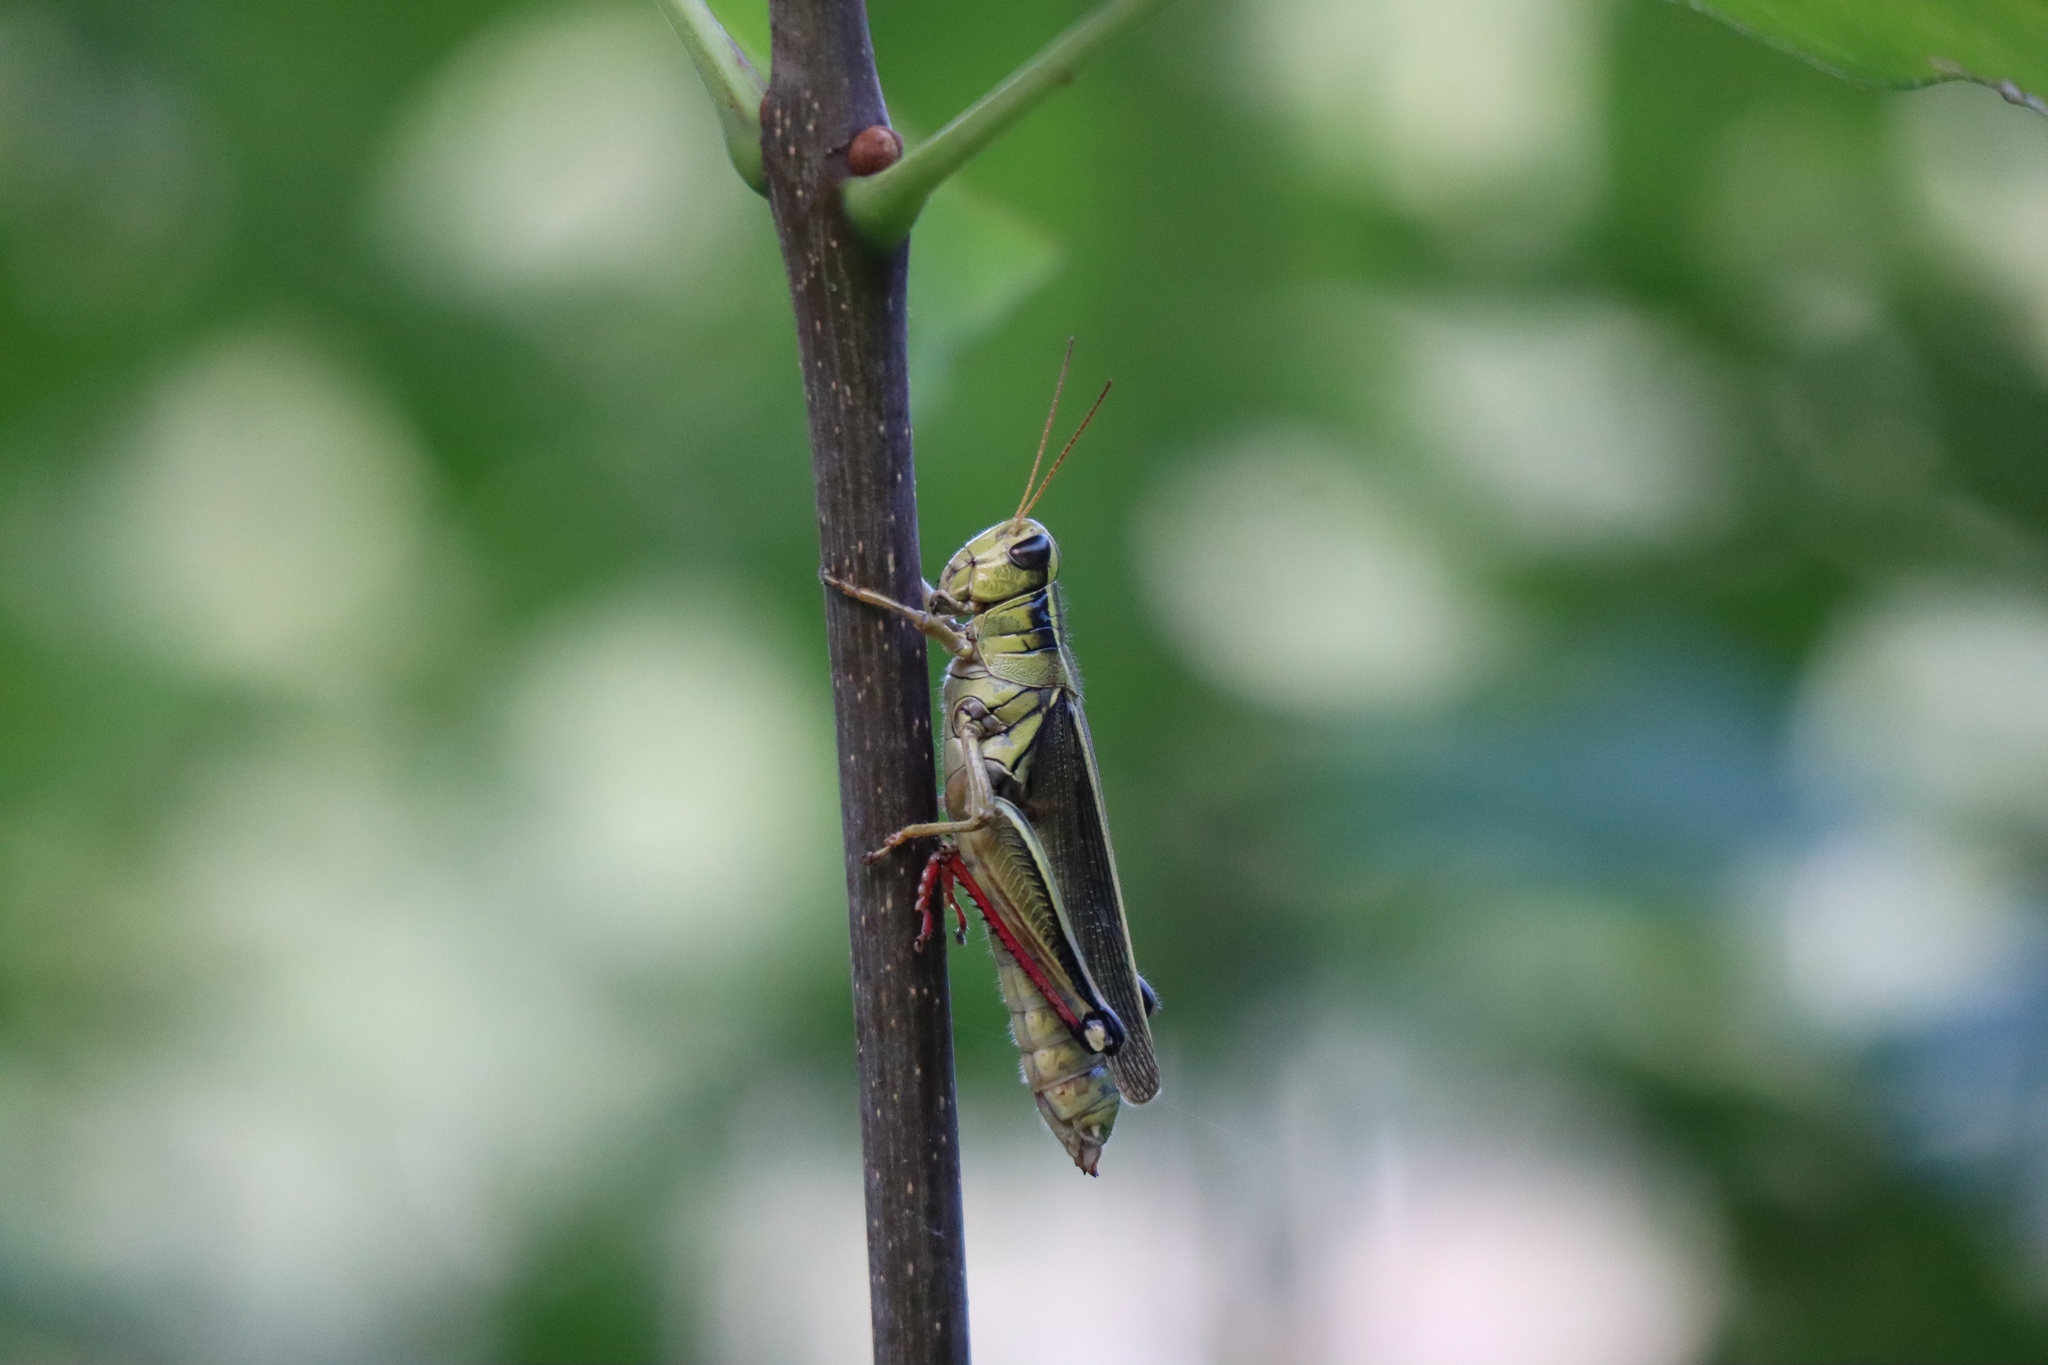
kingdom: Animalia
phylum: Arthropoda
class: Insecta
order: Orthoptera
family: Acrididae
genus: Melanoplus
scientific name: Melanoplus bivittatus
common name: Two-striped grasshopper
